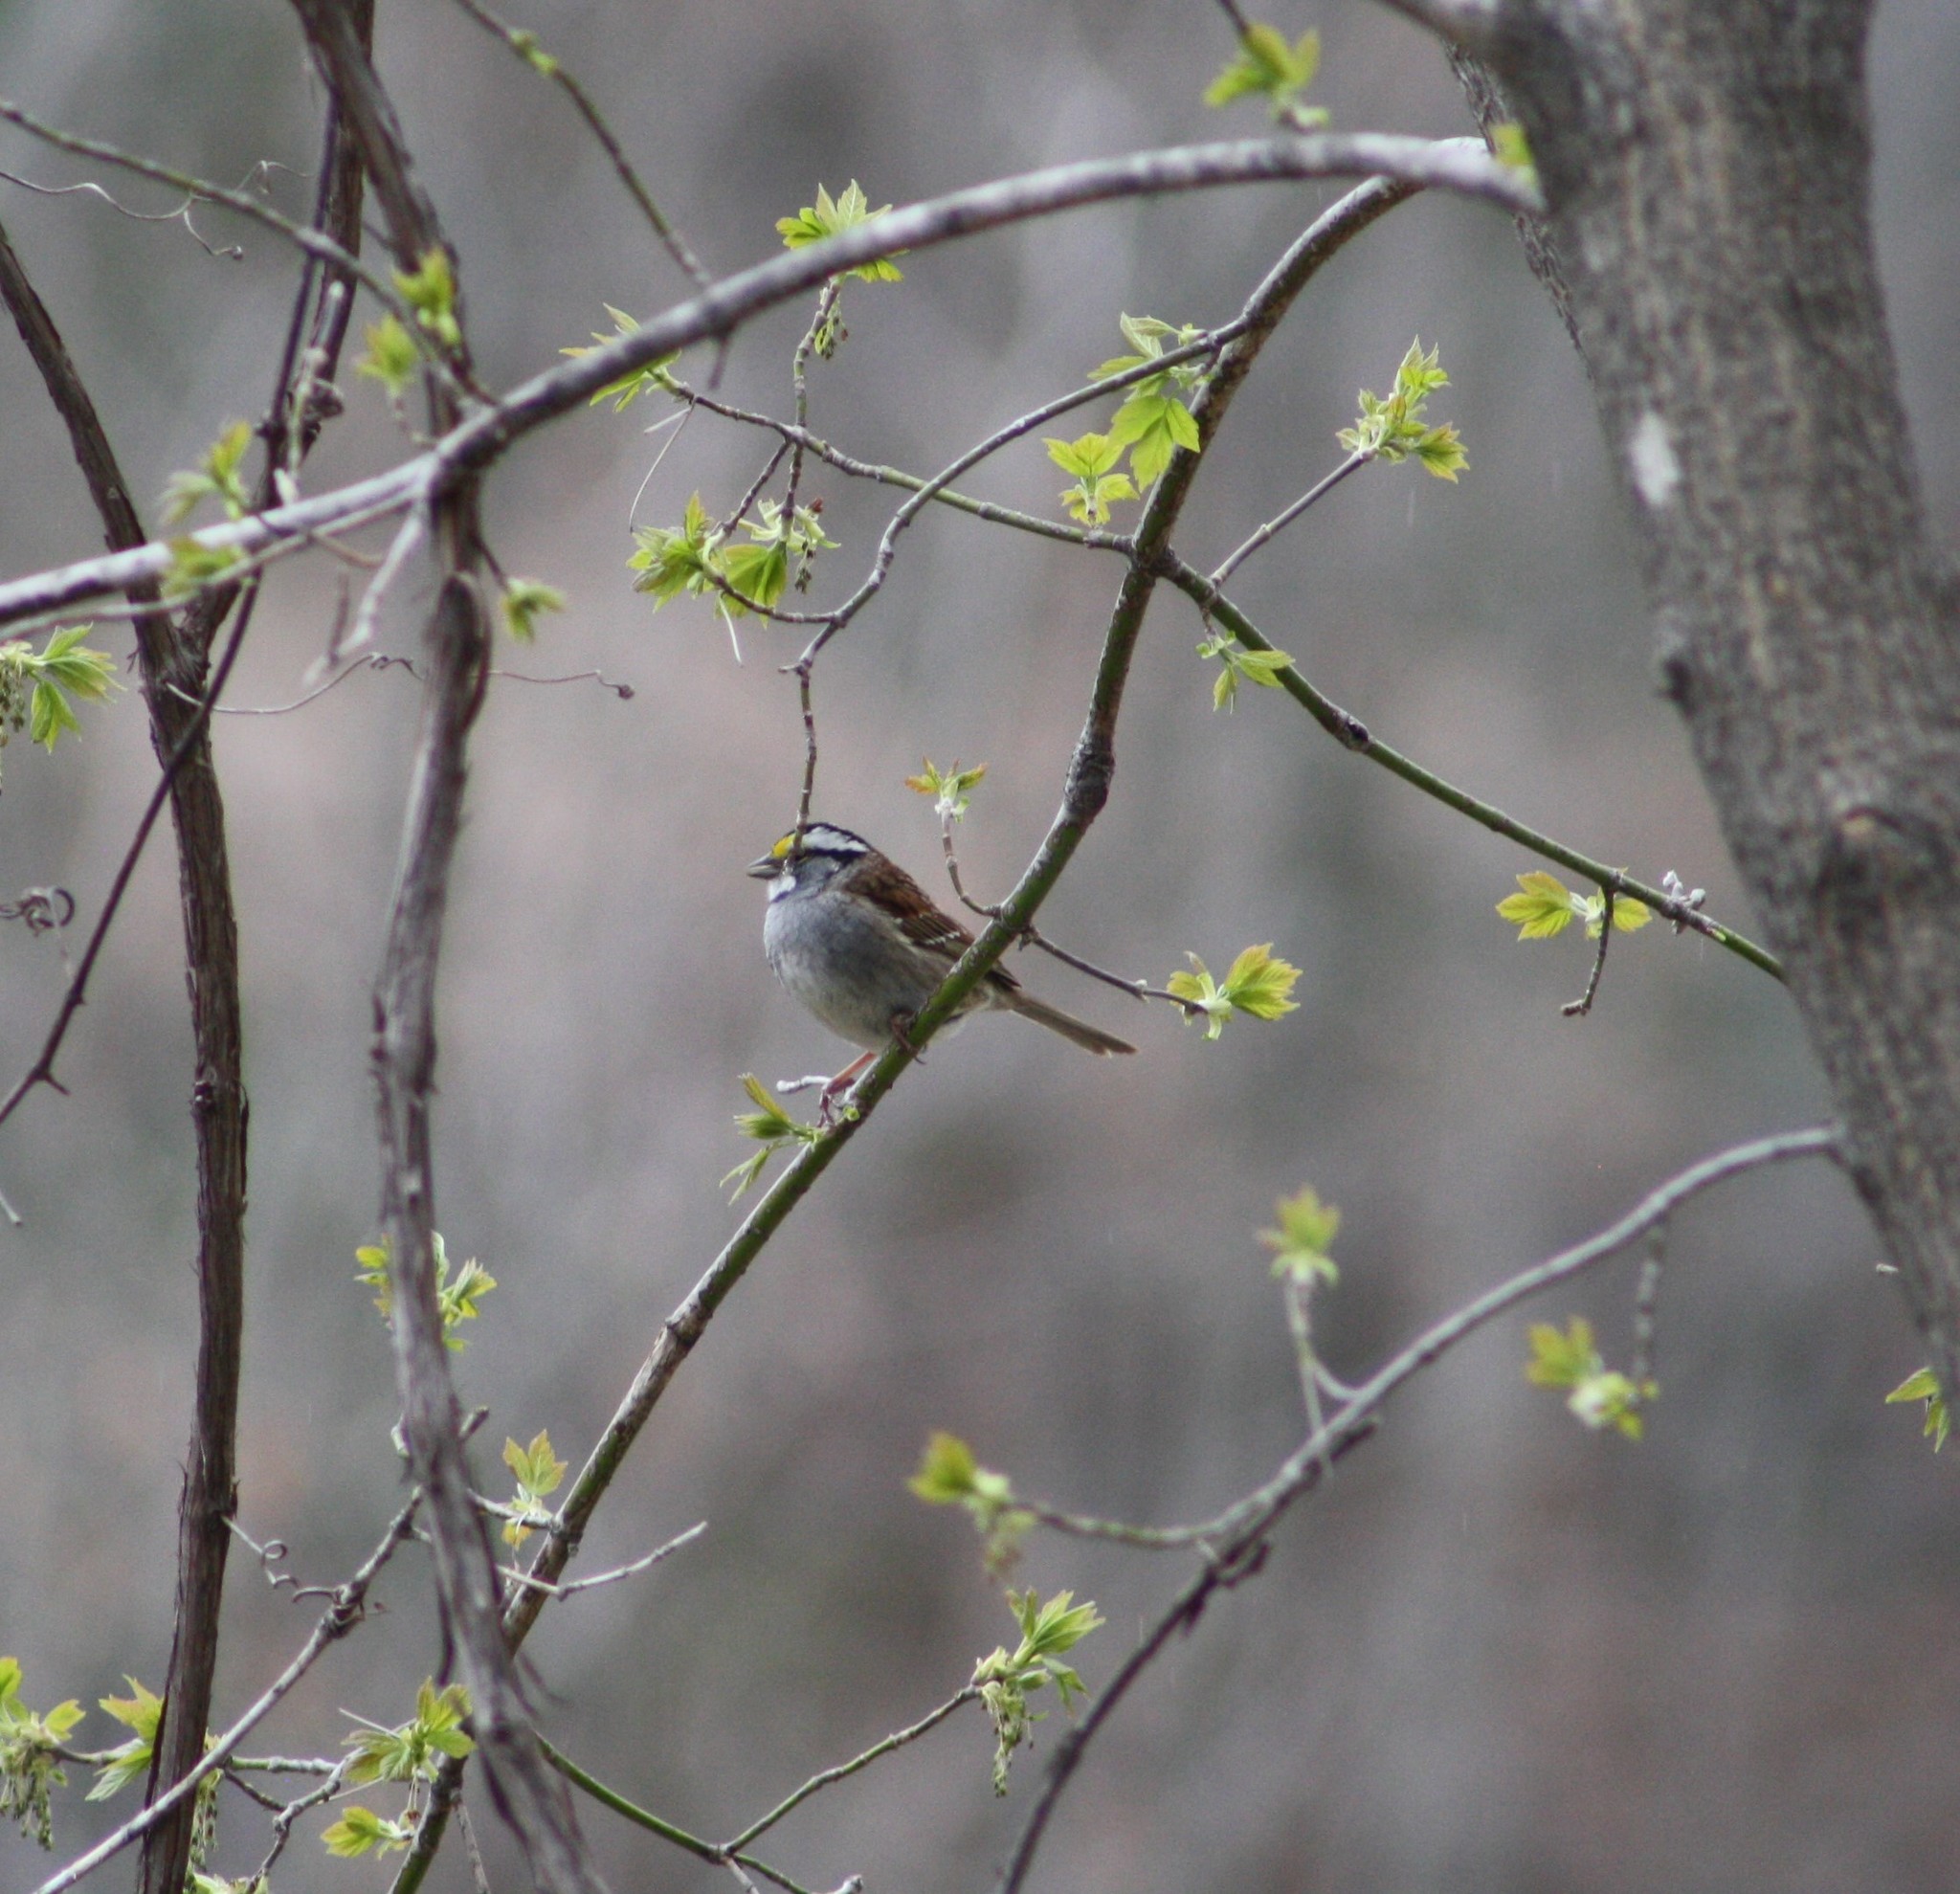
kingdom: Animalia
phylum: Chordata
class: Aves
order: Passeriformes
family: Passerellidae
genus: Zonotrichia
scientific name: Zonotrichia albicollis
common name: White-throated sparrow
